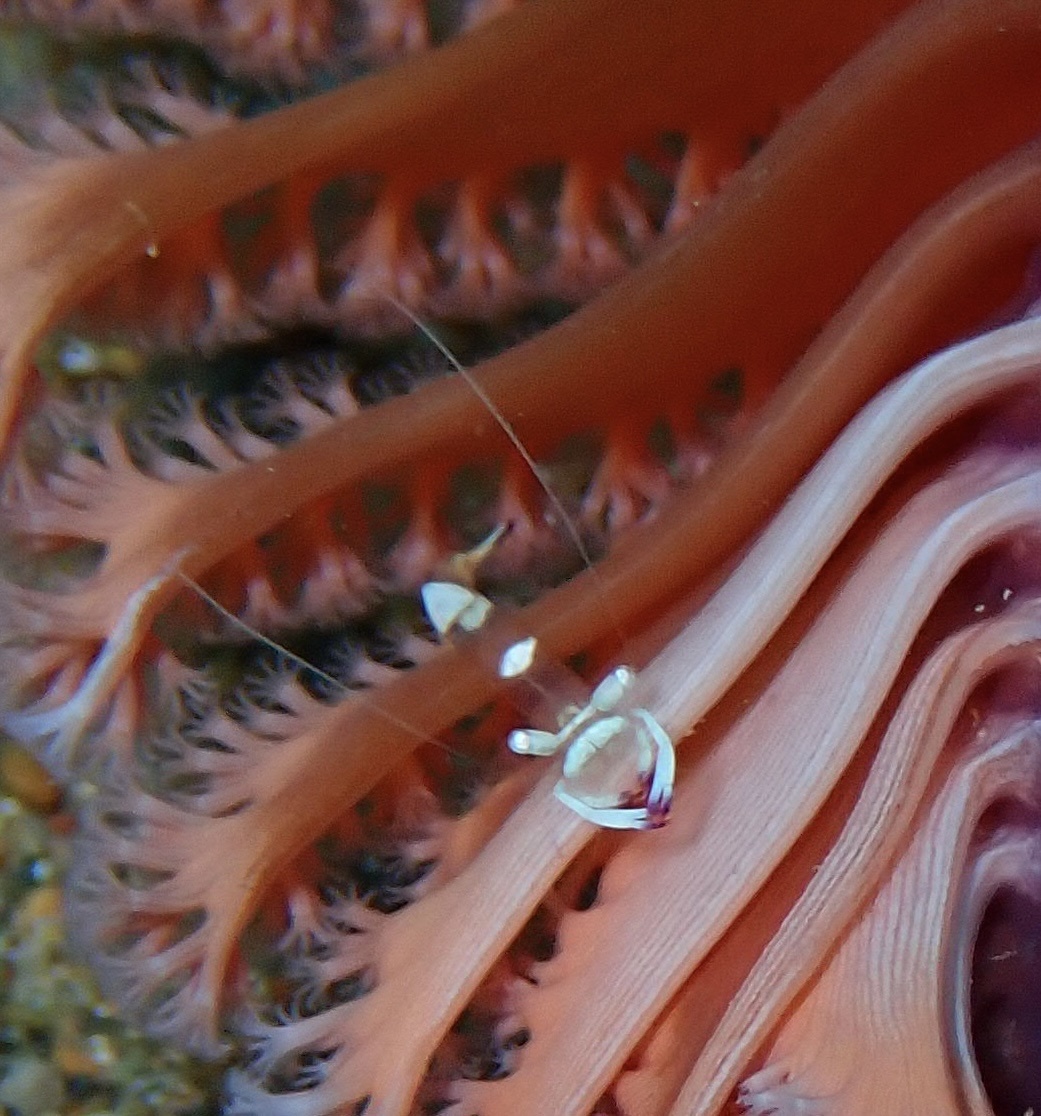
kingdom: Animalia
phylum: Arthropoda
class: Malacostraca
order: Decapoda
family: Palaemonidae
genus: Ancylomenes
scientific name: Ancylomenes magnificus
